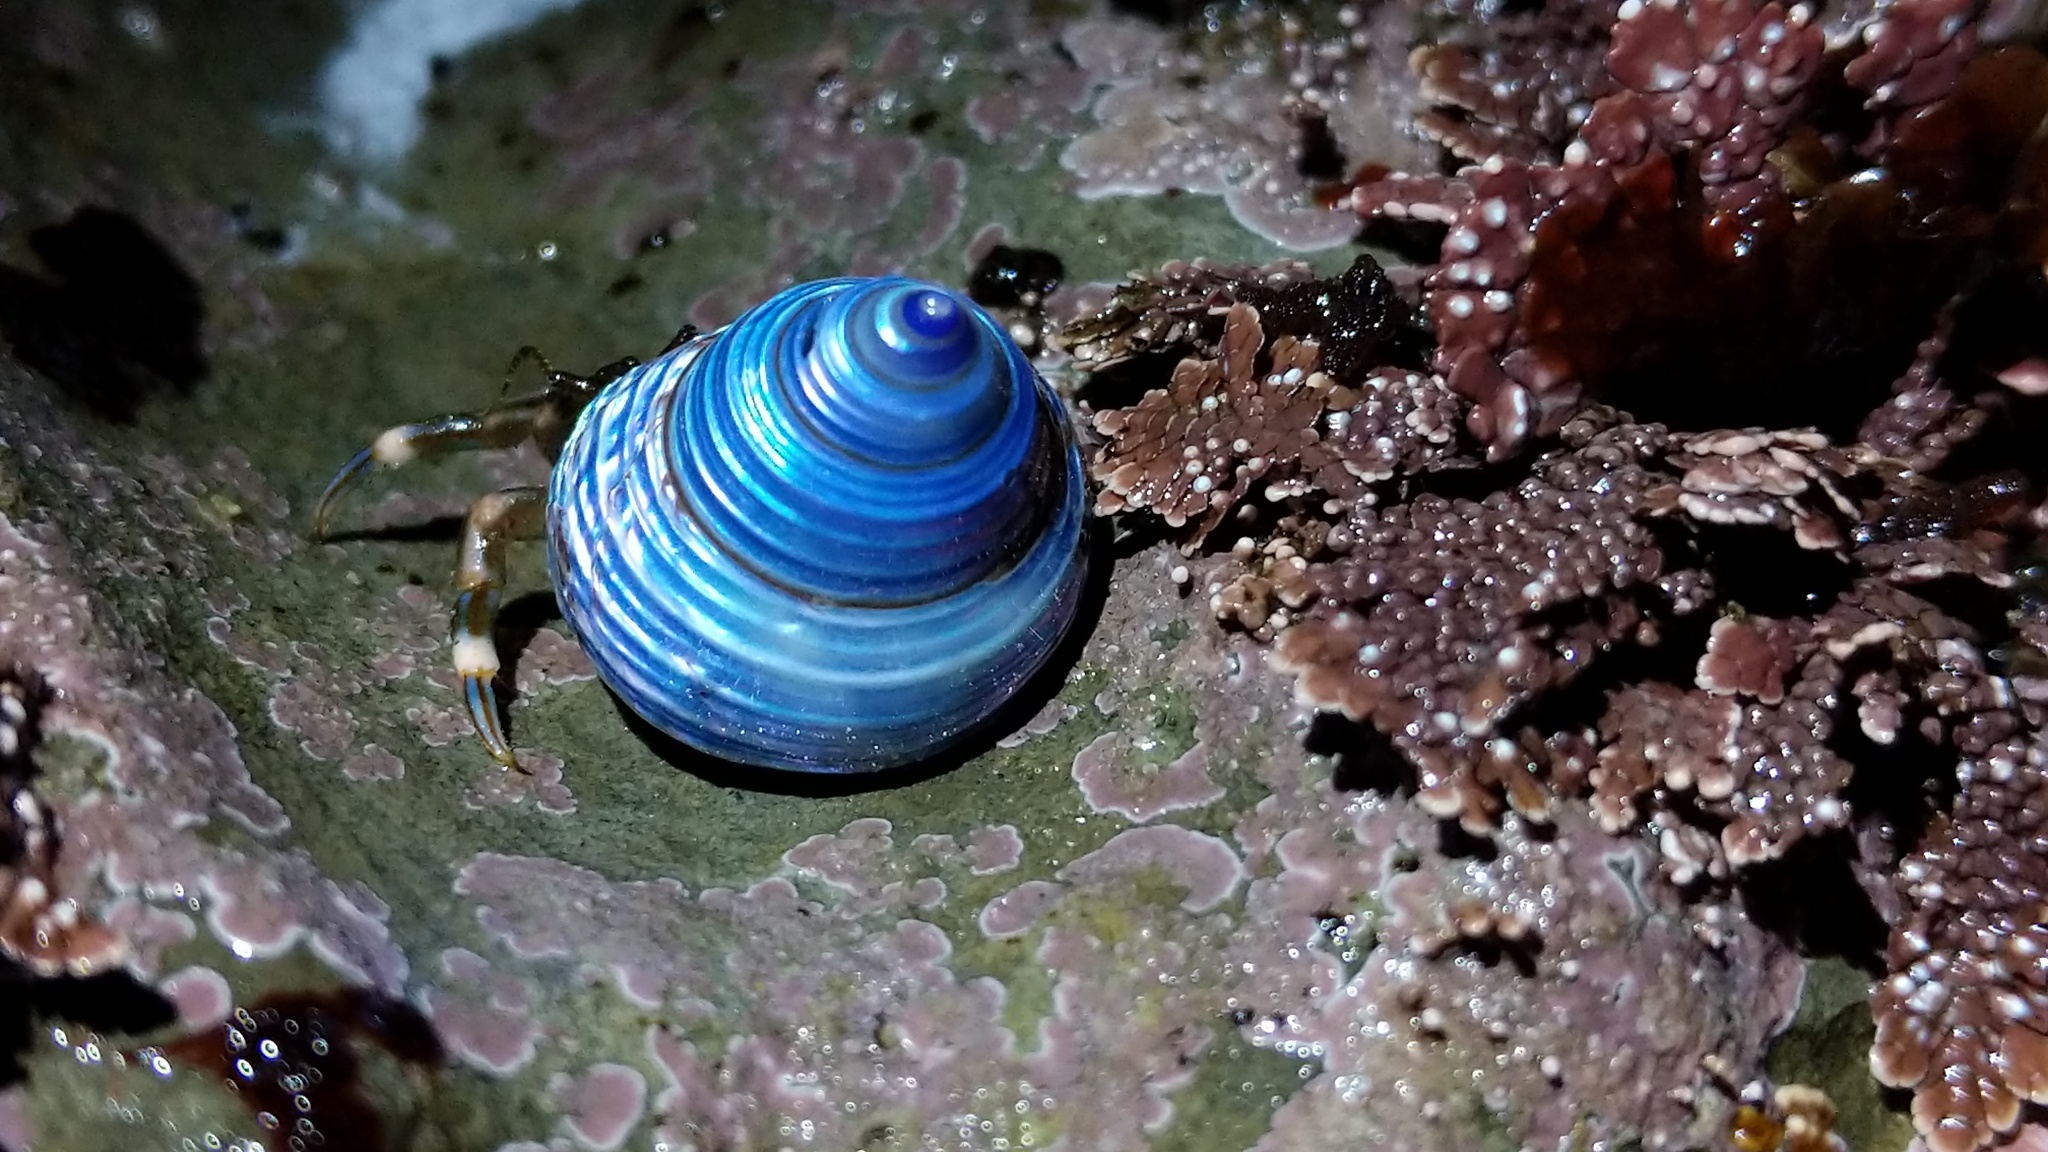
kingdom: Animalia
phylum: Mollusca
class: Gastropoda
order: Trochida
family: Calliostomatidae
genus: Calliostoma
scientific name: Calliostoma ligatum
